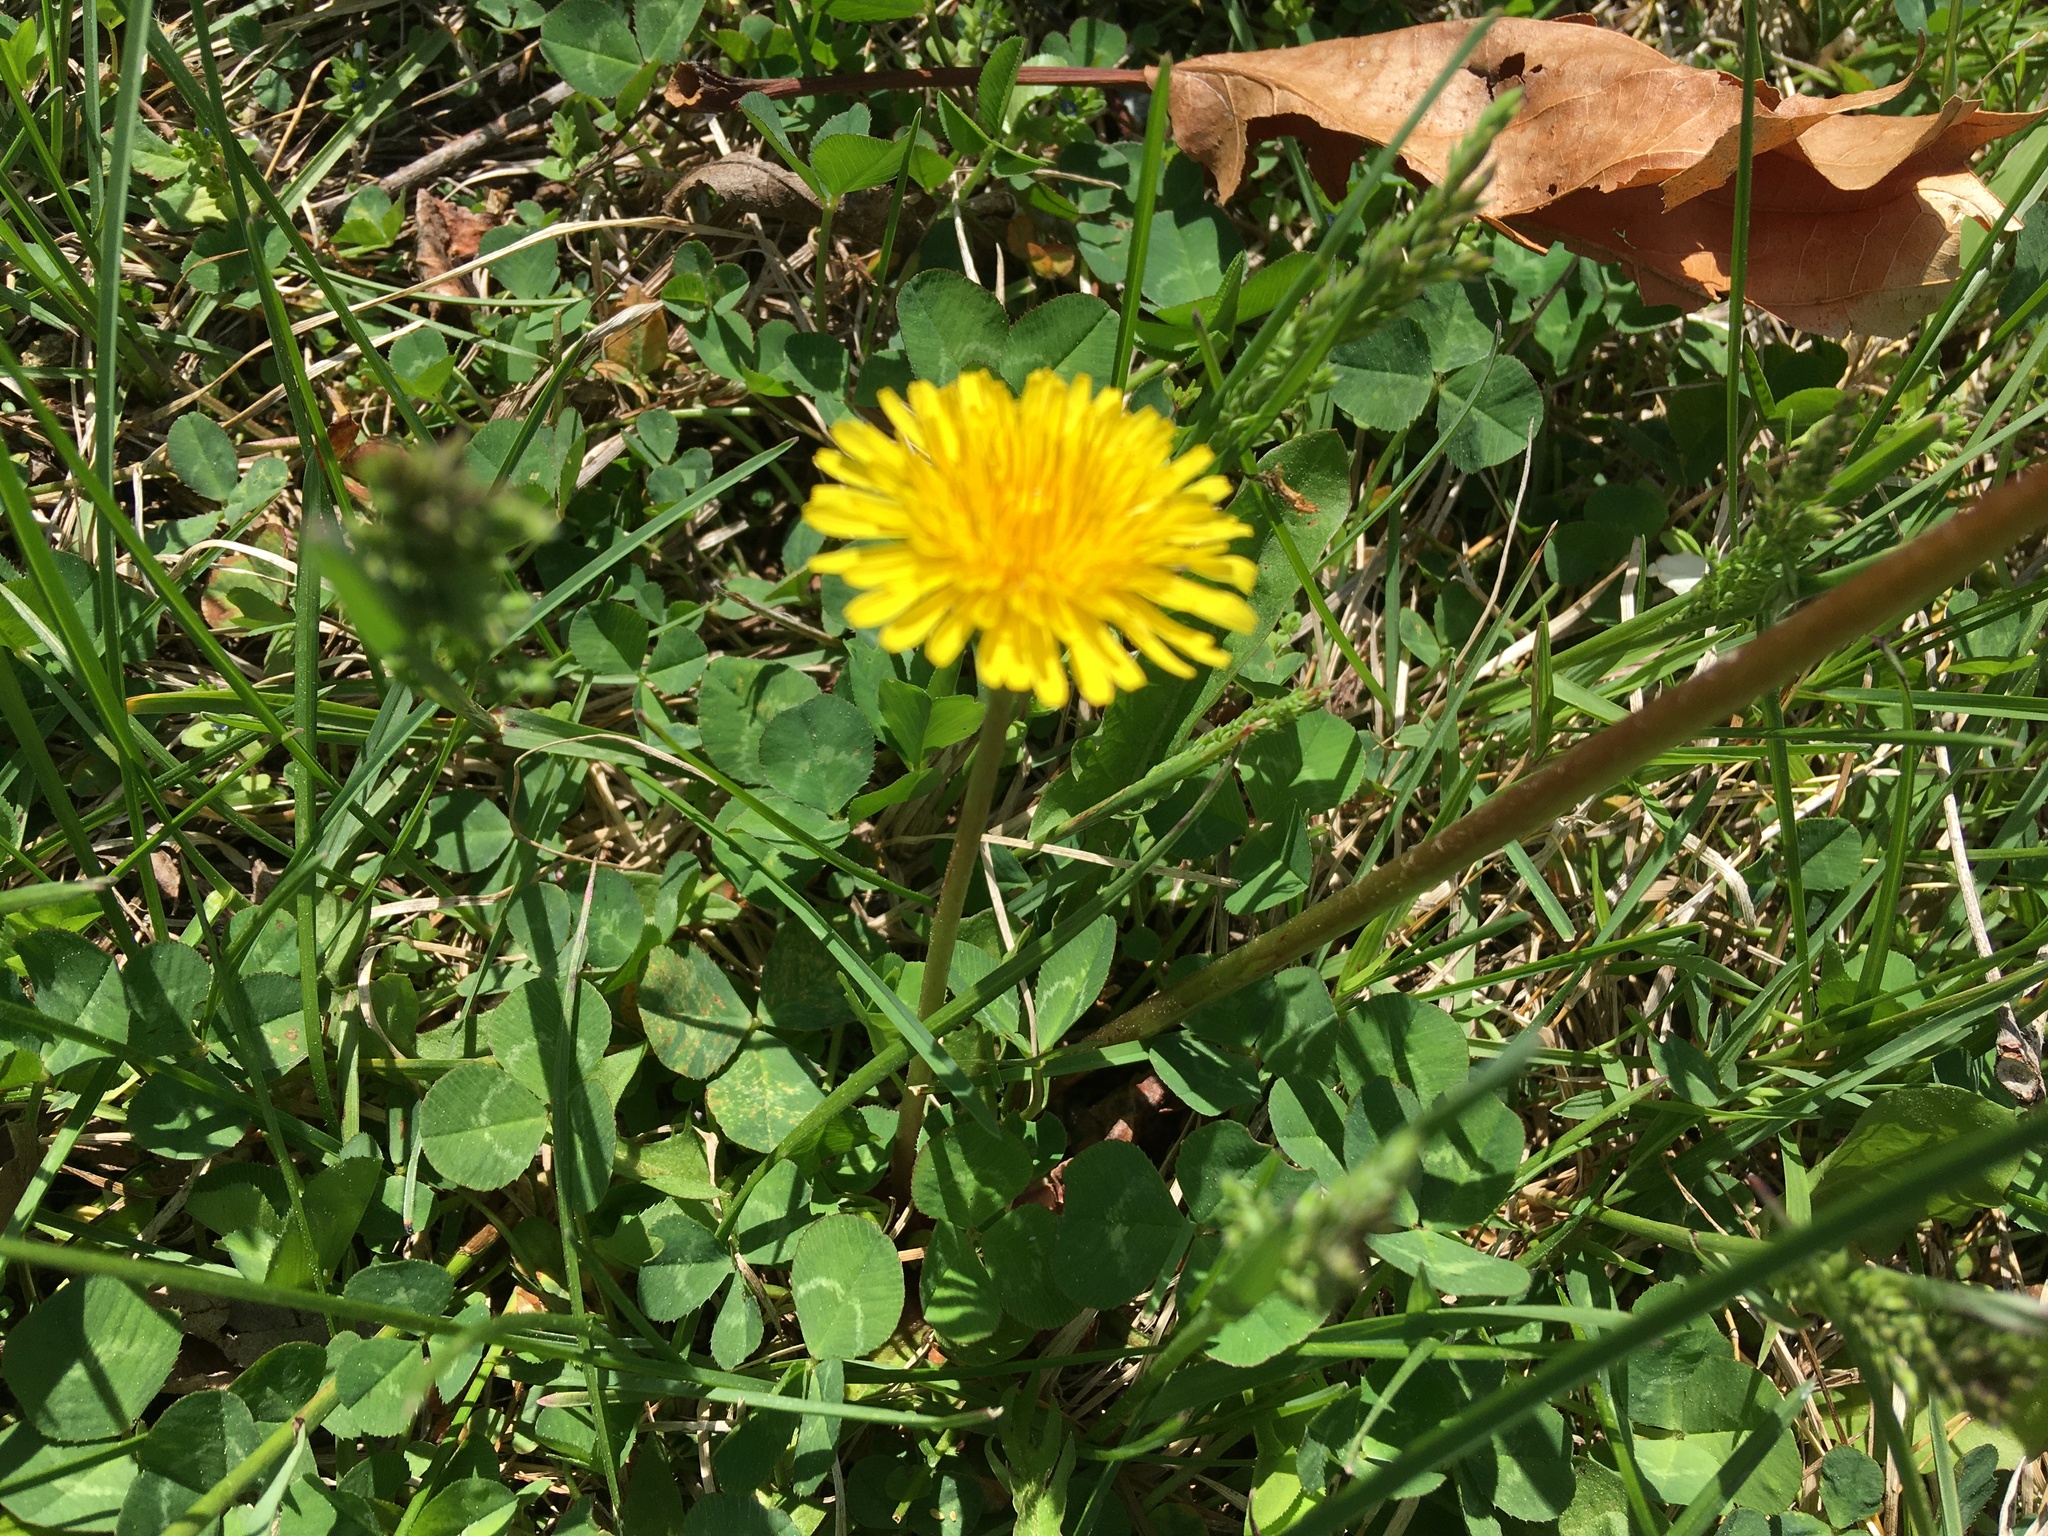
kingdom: Plantae
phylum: Tracheophyta
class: Magnoliopsida
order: Asterales
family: Asteraceae
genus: Taraxacum
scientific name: Taraxacum officinale
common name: Common dandelion
